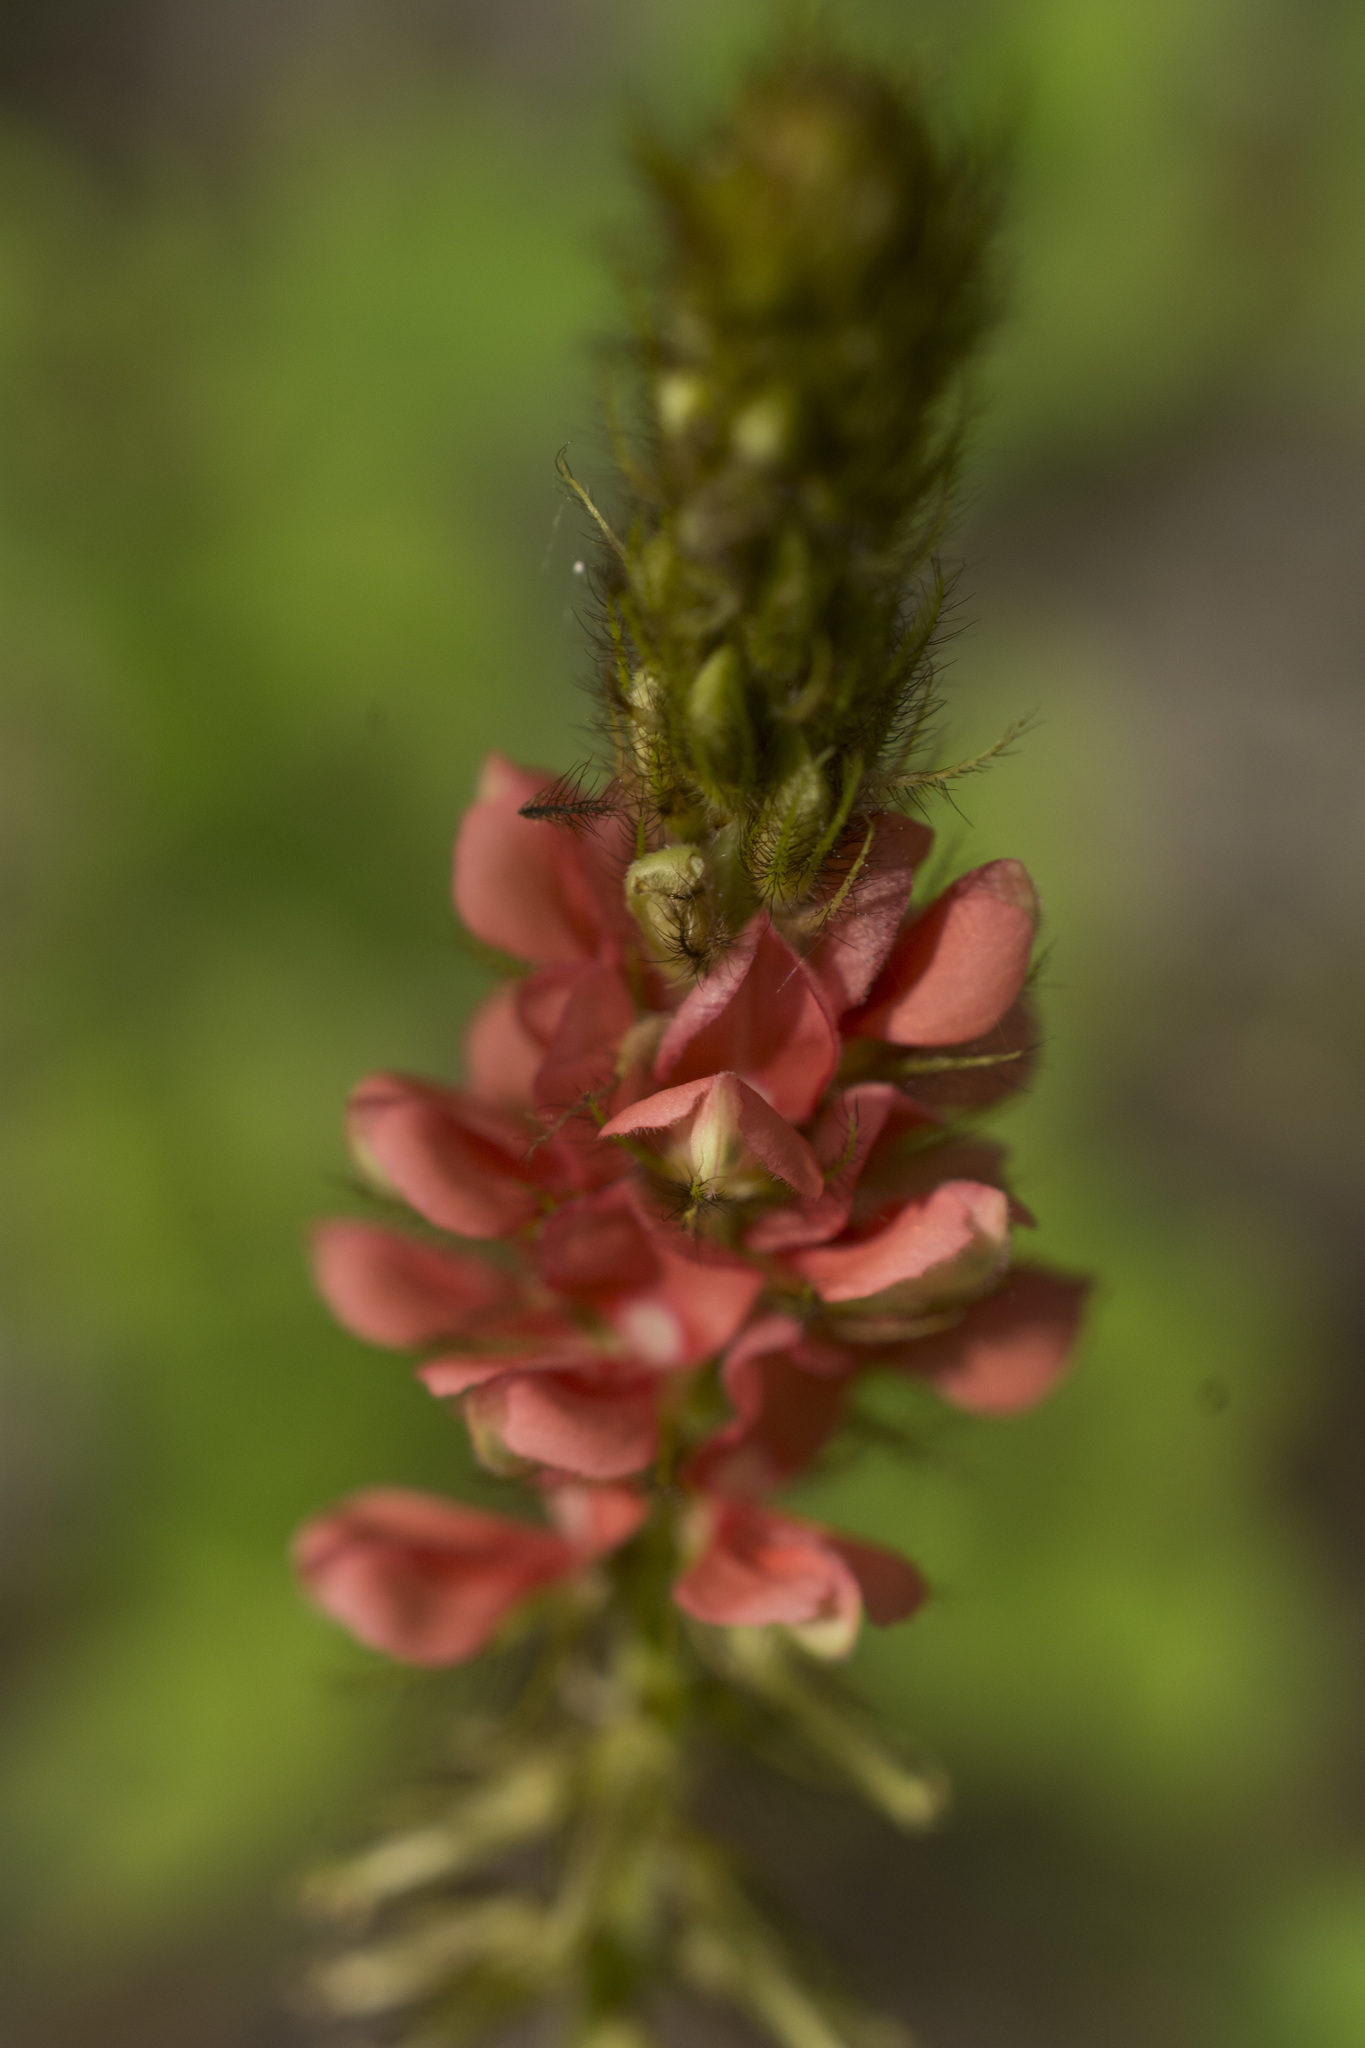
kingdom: Plantae
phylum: Tracheophyta
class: Magnoliopsida
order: Fabales
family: Fabaceae
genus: Indigofera
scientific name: Indigofera hirsuta
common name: Hairy indigo
